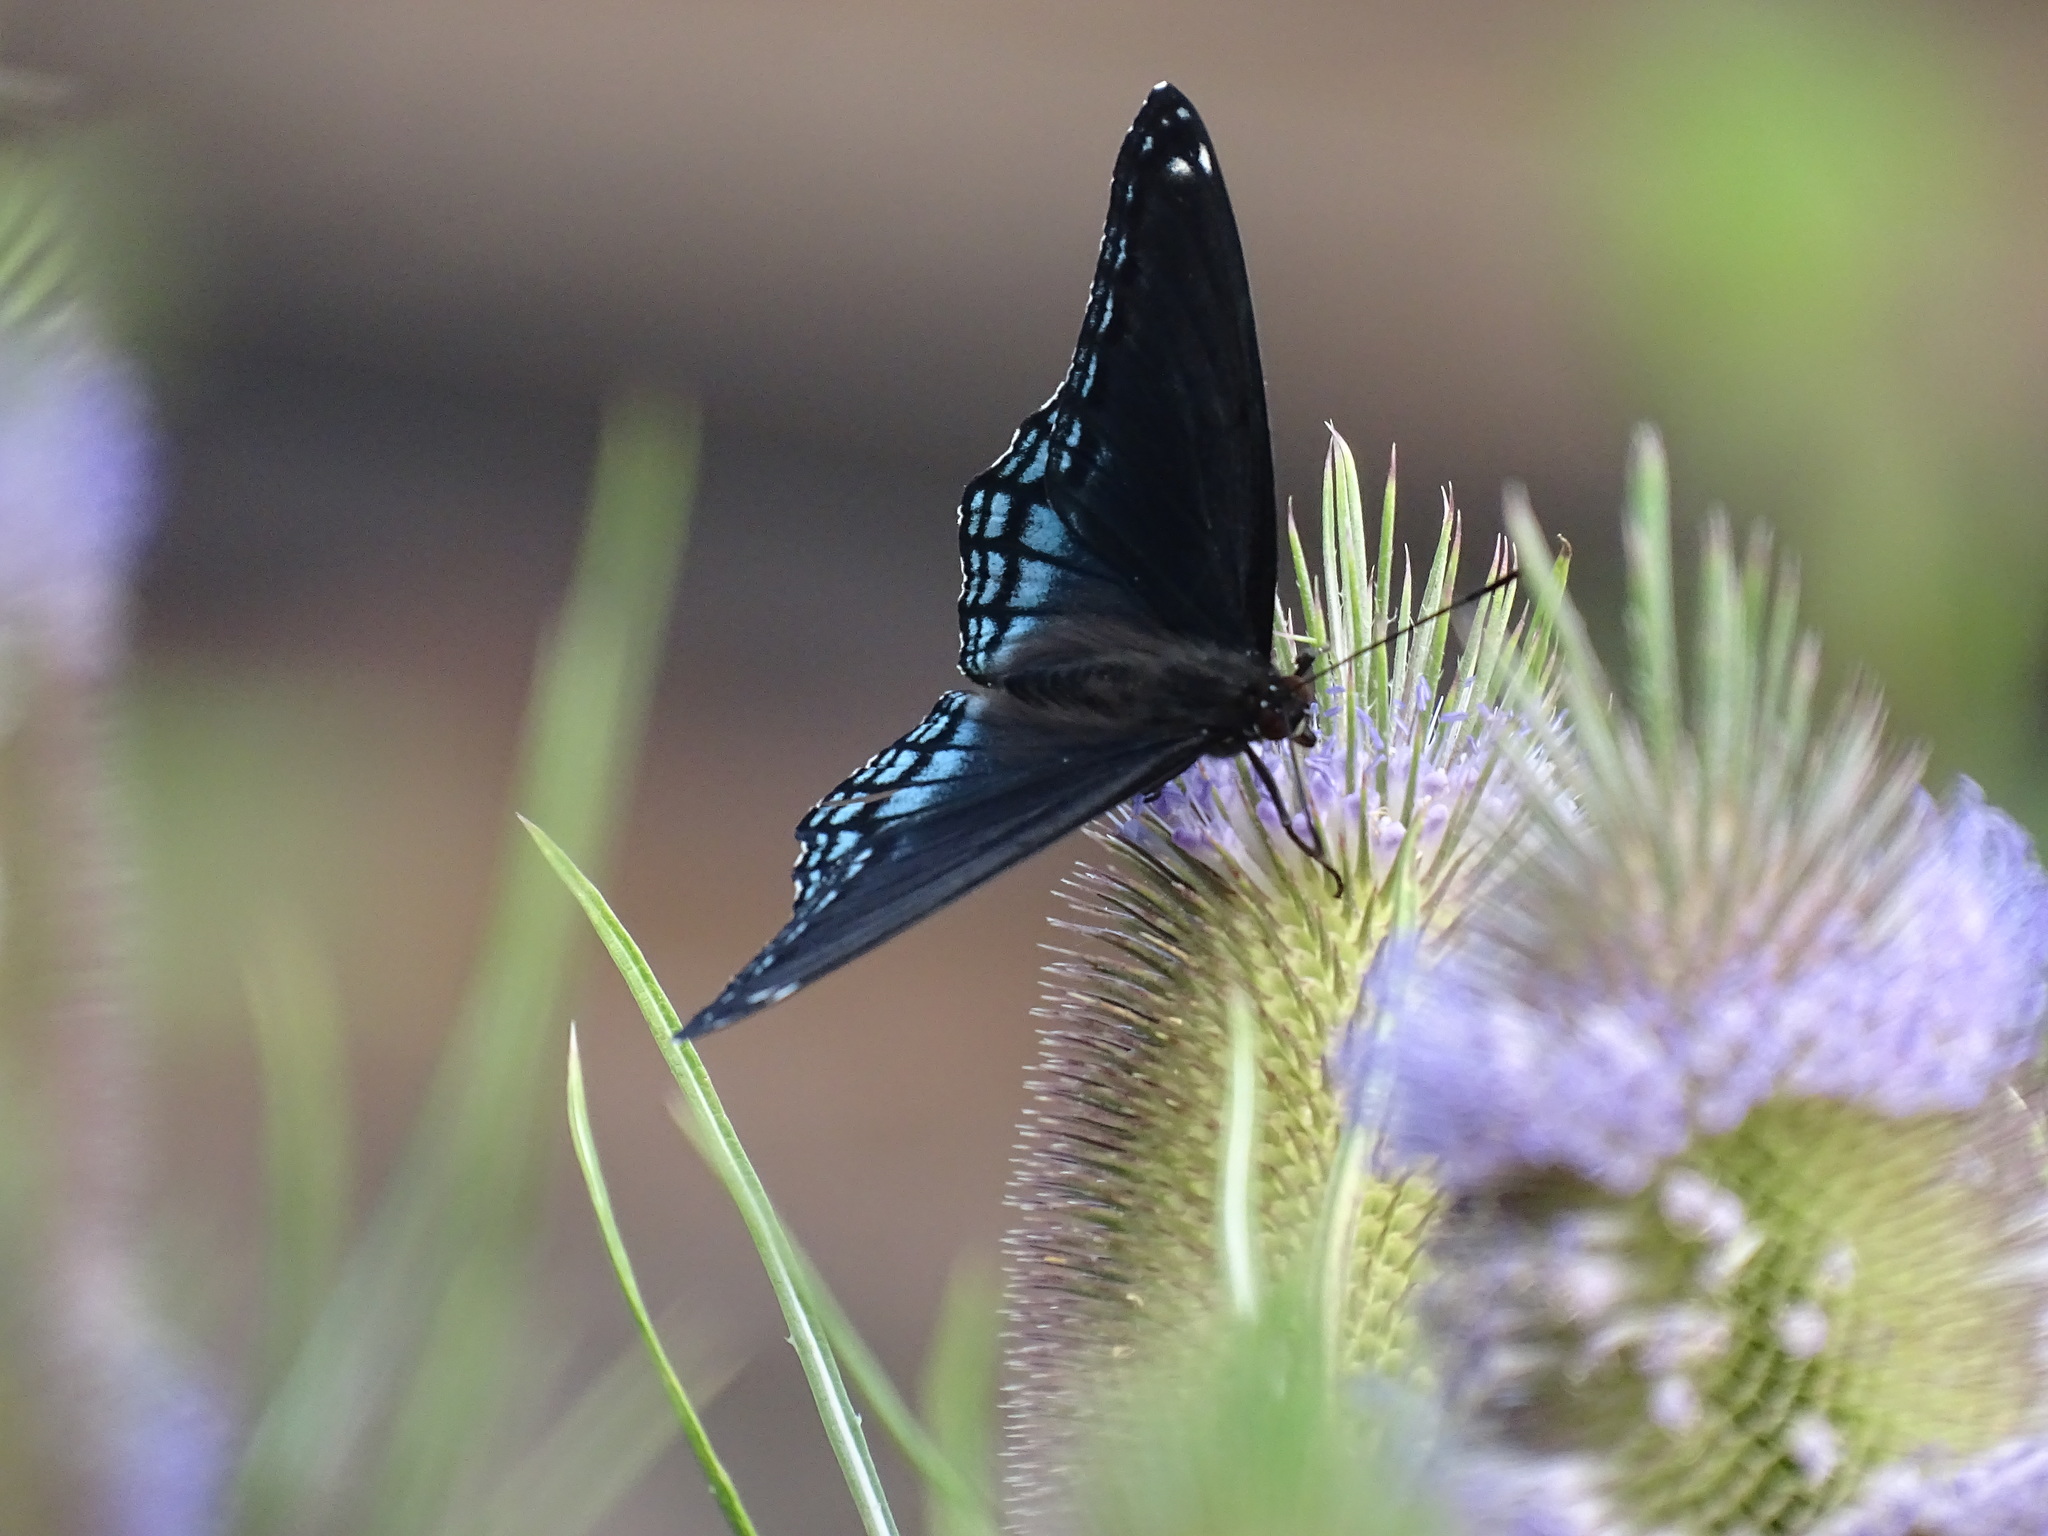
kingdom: Animalia
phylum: Arthropoda
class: Insecta
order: Lepidoptera
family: Nymphalidae
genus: Limenitis
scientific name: Limenitis astyanax
